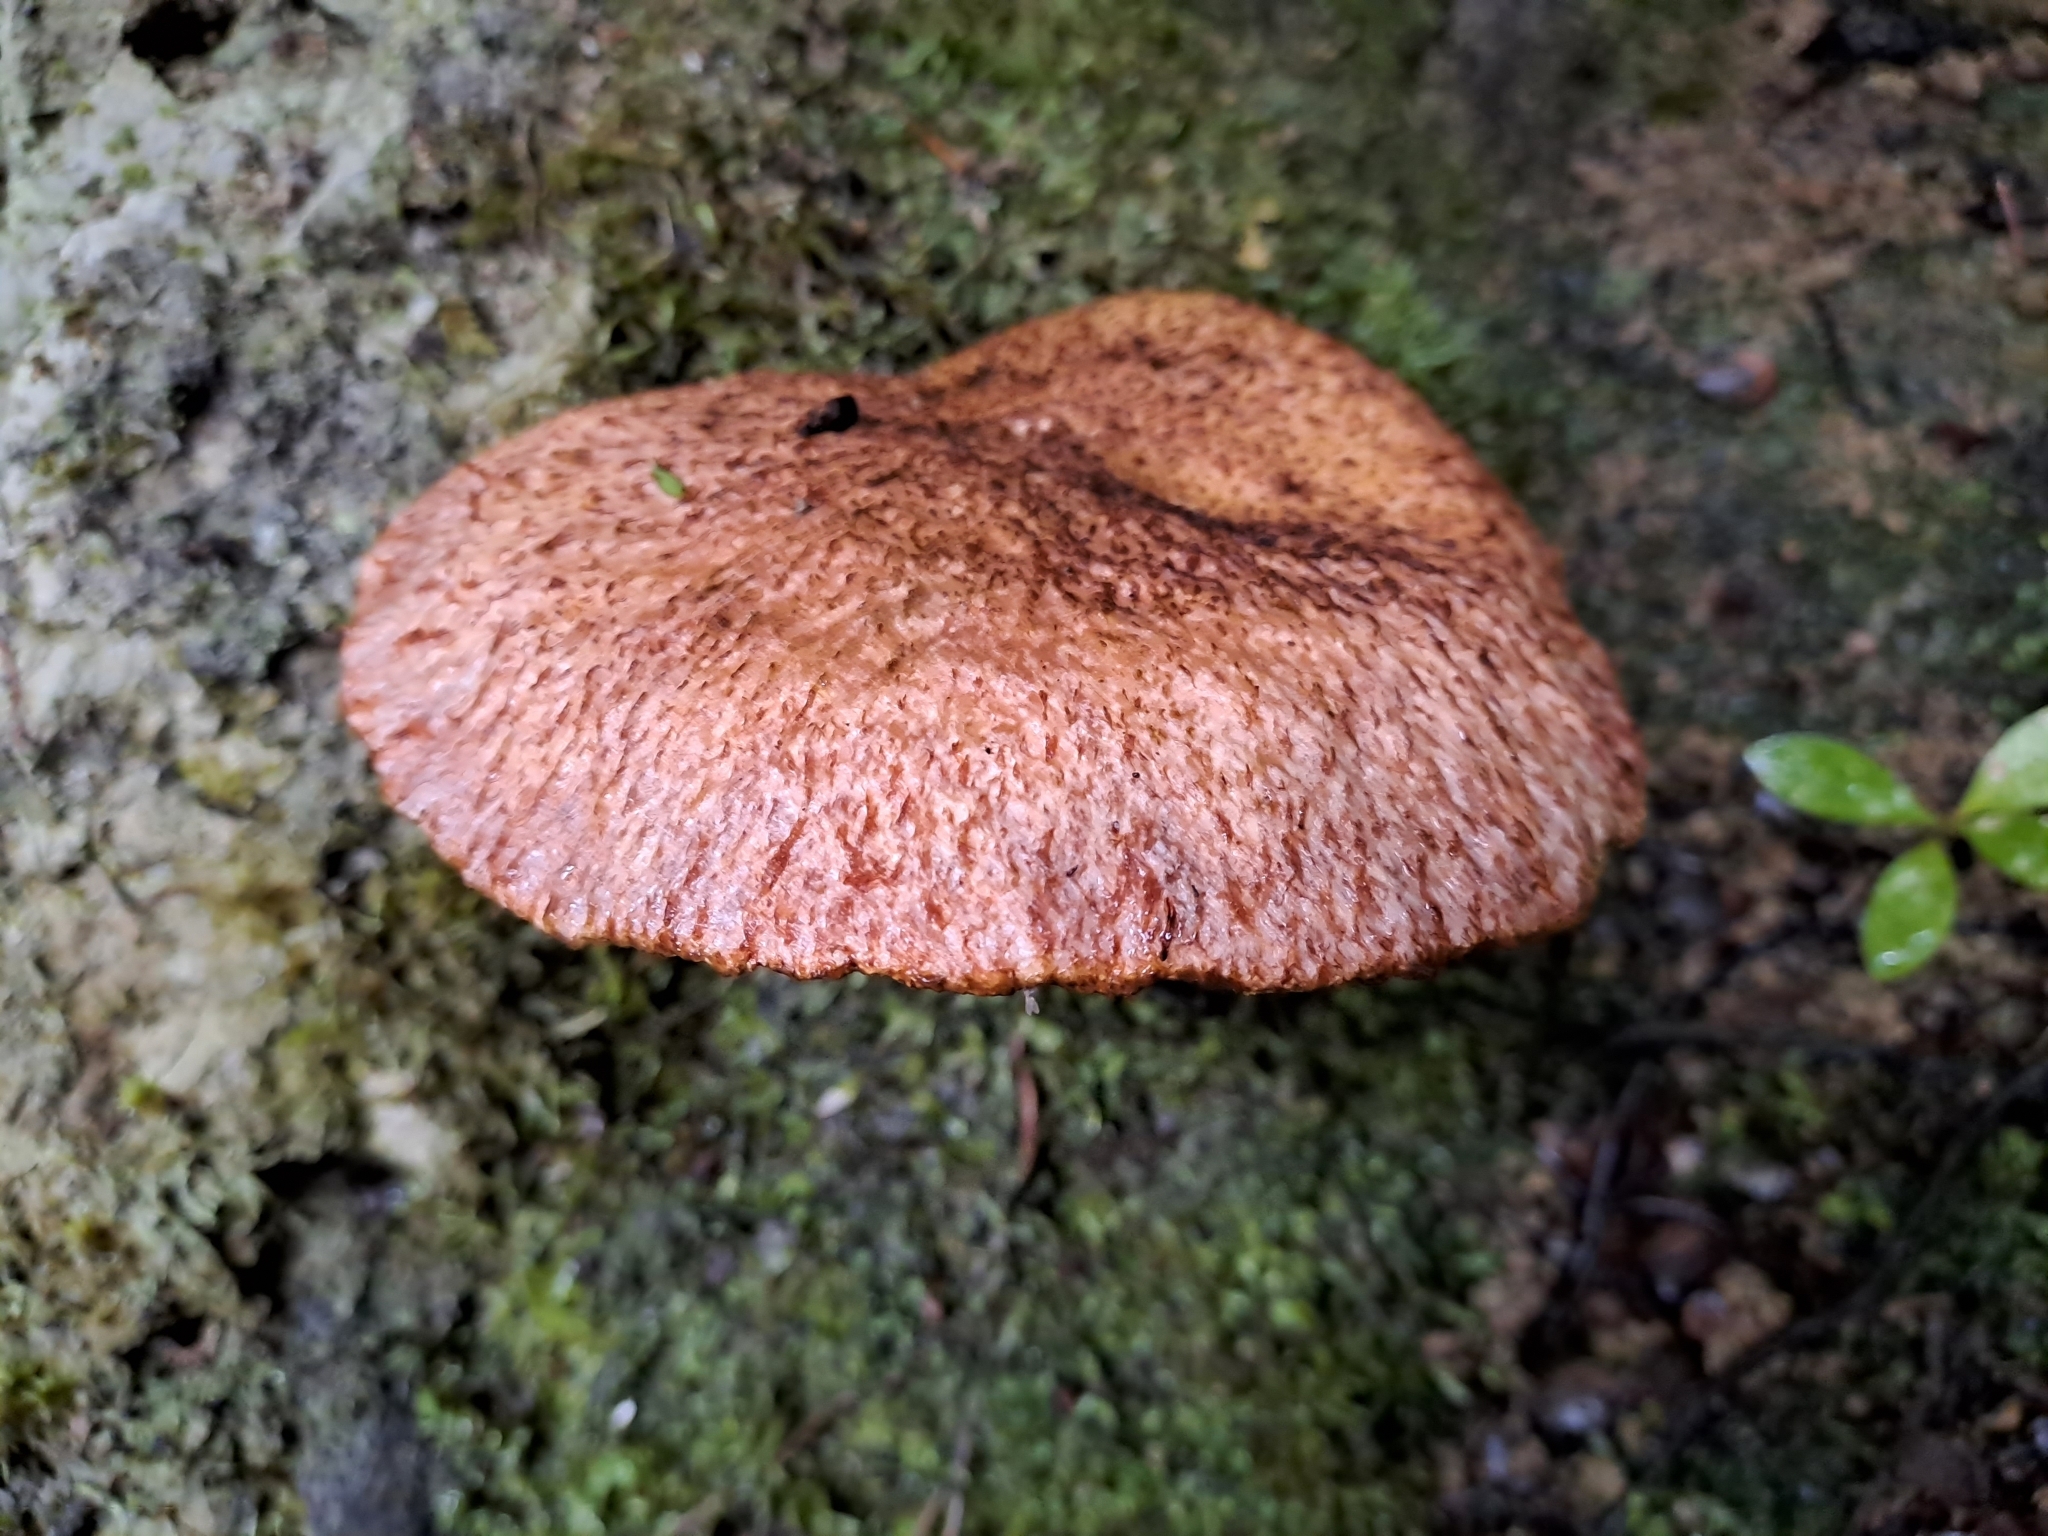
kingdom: Fungi
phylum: Basidiomycota
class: Agaricomycetes
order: Boletales
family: Suillaceae
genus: Suillus
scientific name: Suillus lakei
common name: Western painted suillus
